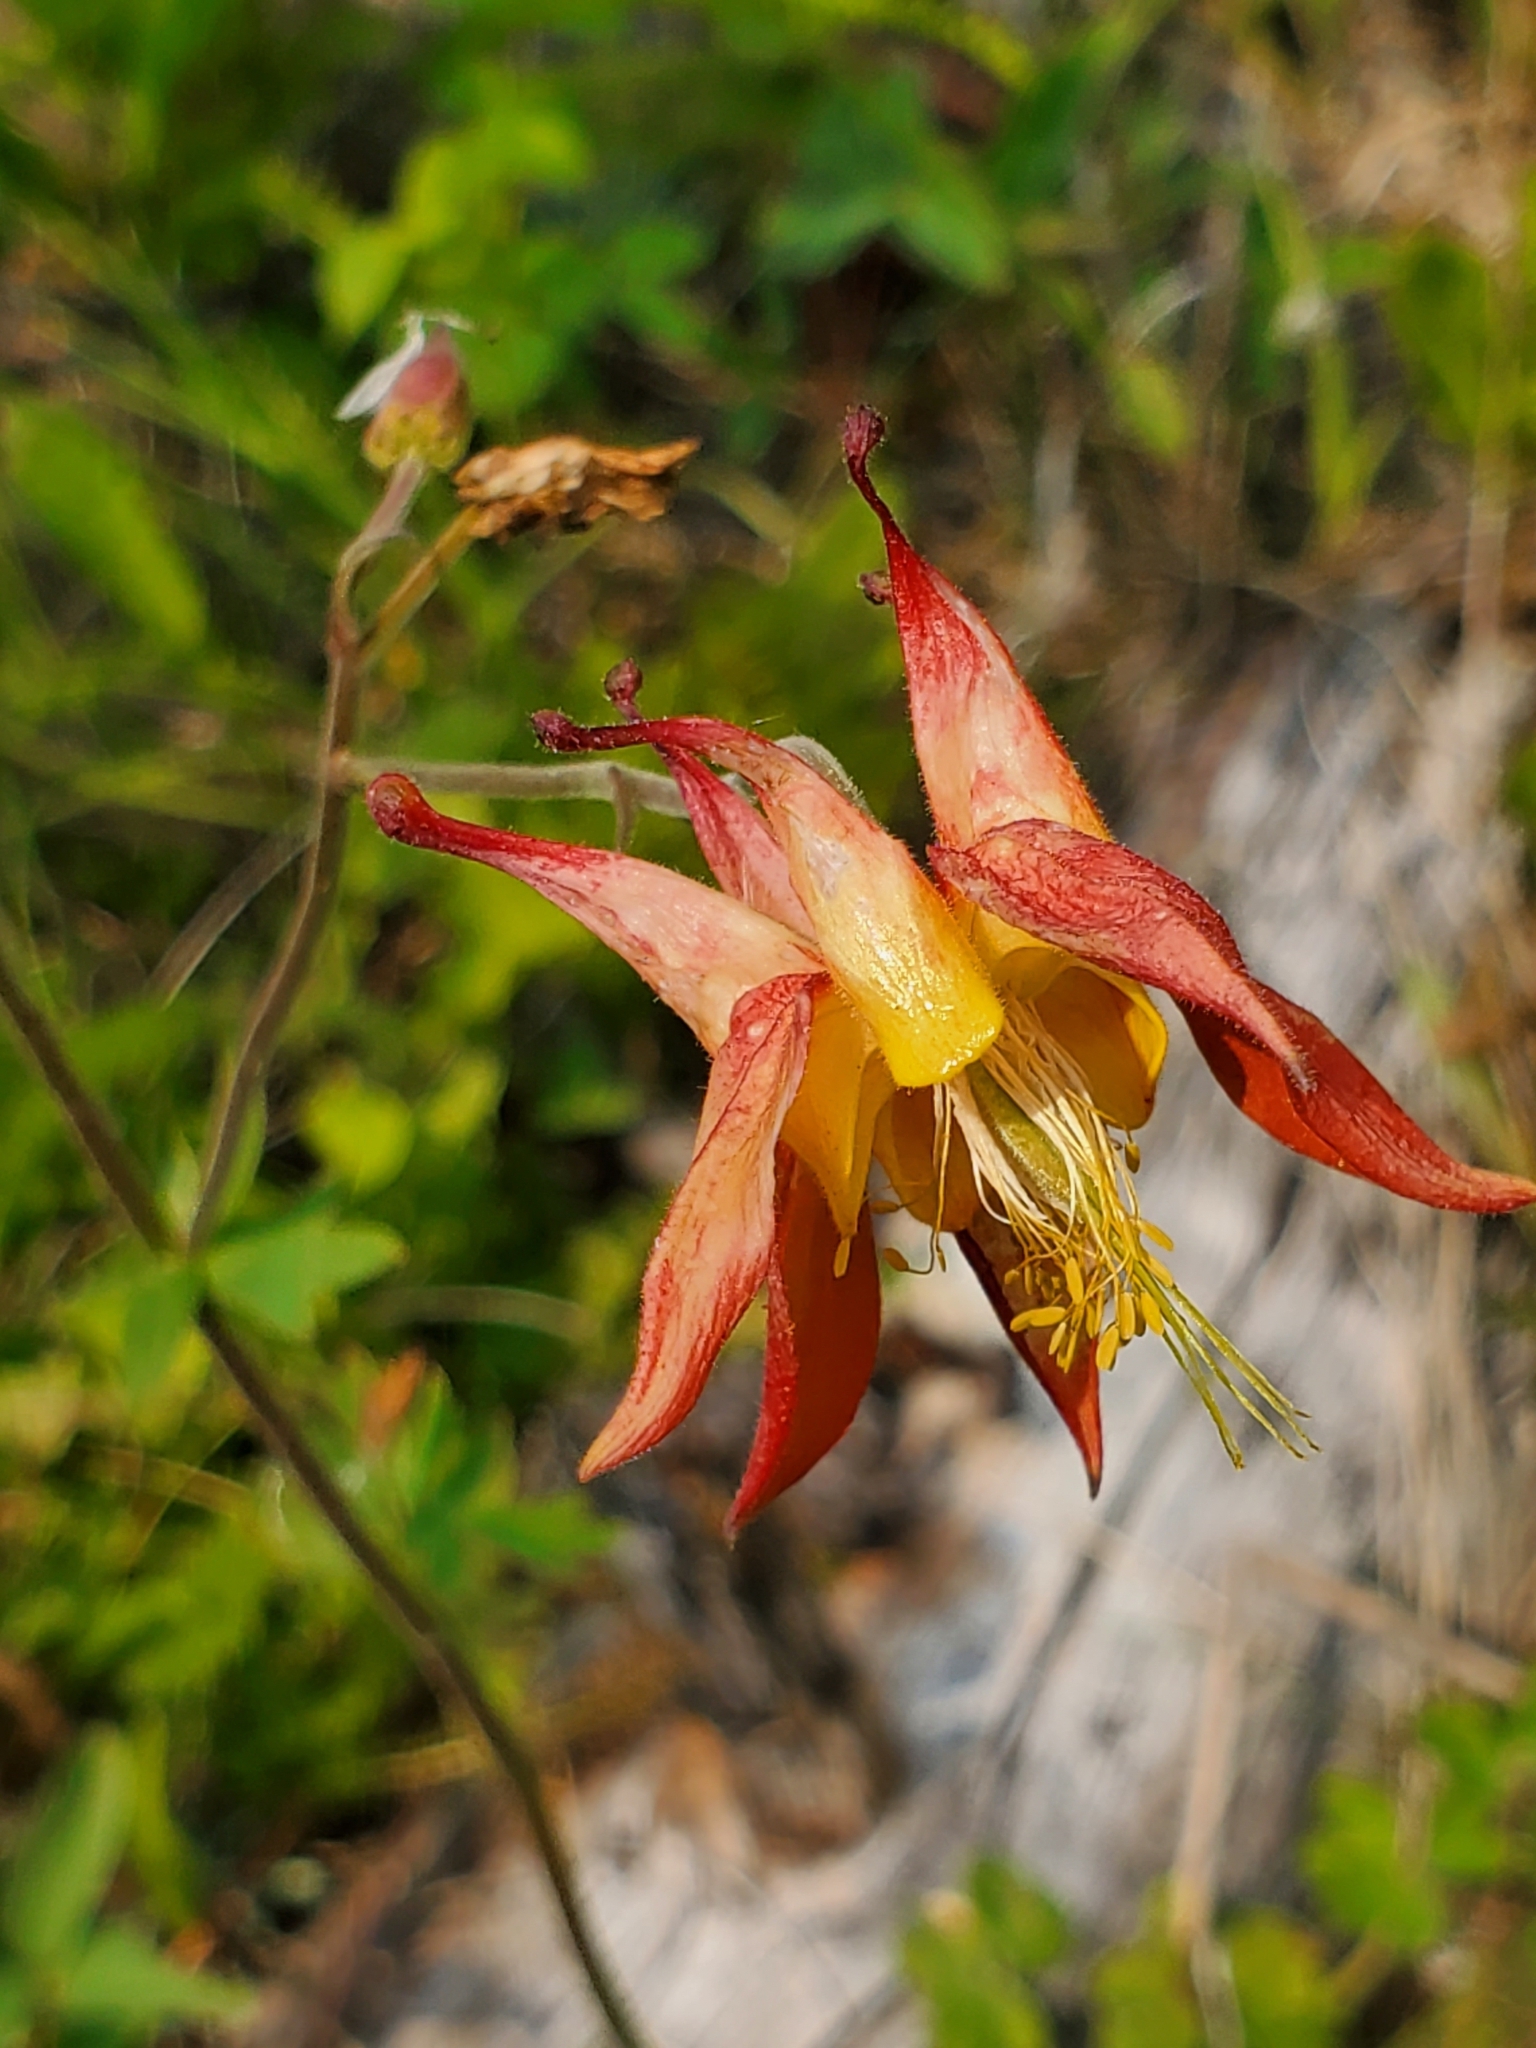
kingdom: Plantae
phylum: Tracheophyta
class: Magnoliopsida
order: Ranunculales
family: Ranunculaceae
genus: Aquilegia
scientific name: Aquilegia formosa
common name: Sitka columbine
